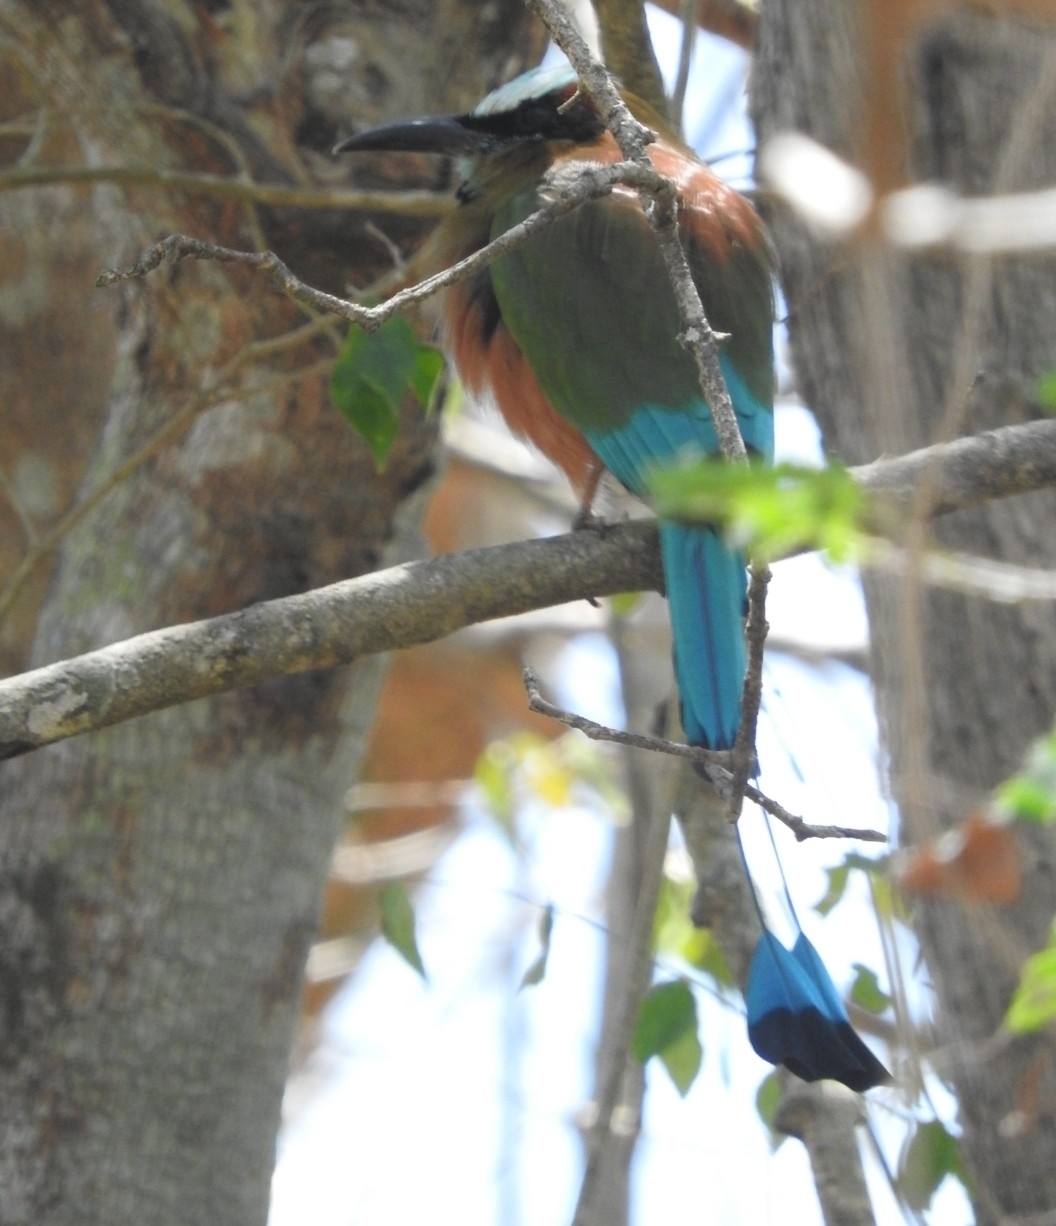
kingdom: Animalia
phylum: Chordata
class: Aves
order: Coraciiformes
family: Momotidae
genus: Eumomota
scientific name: Eumomota superciliosa
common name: Turquoise-browed motmot
